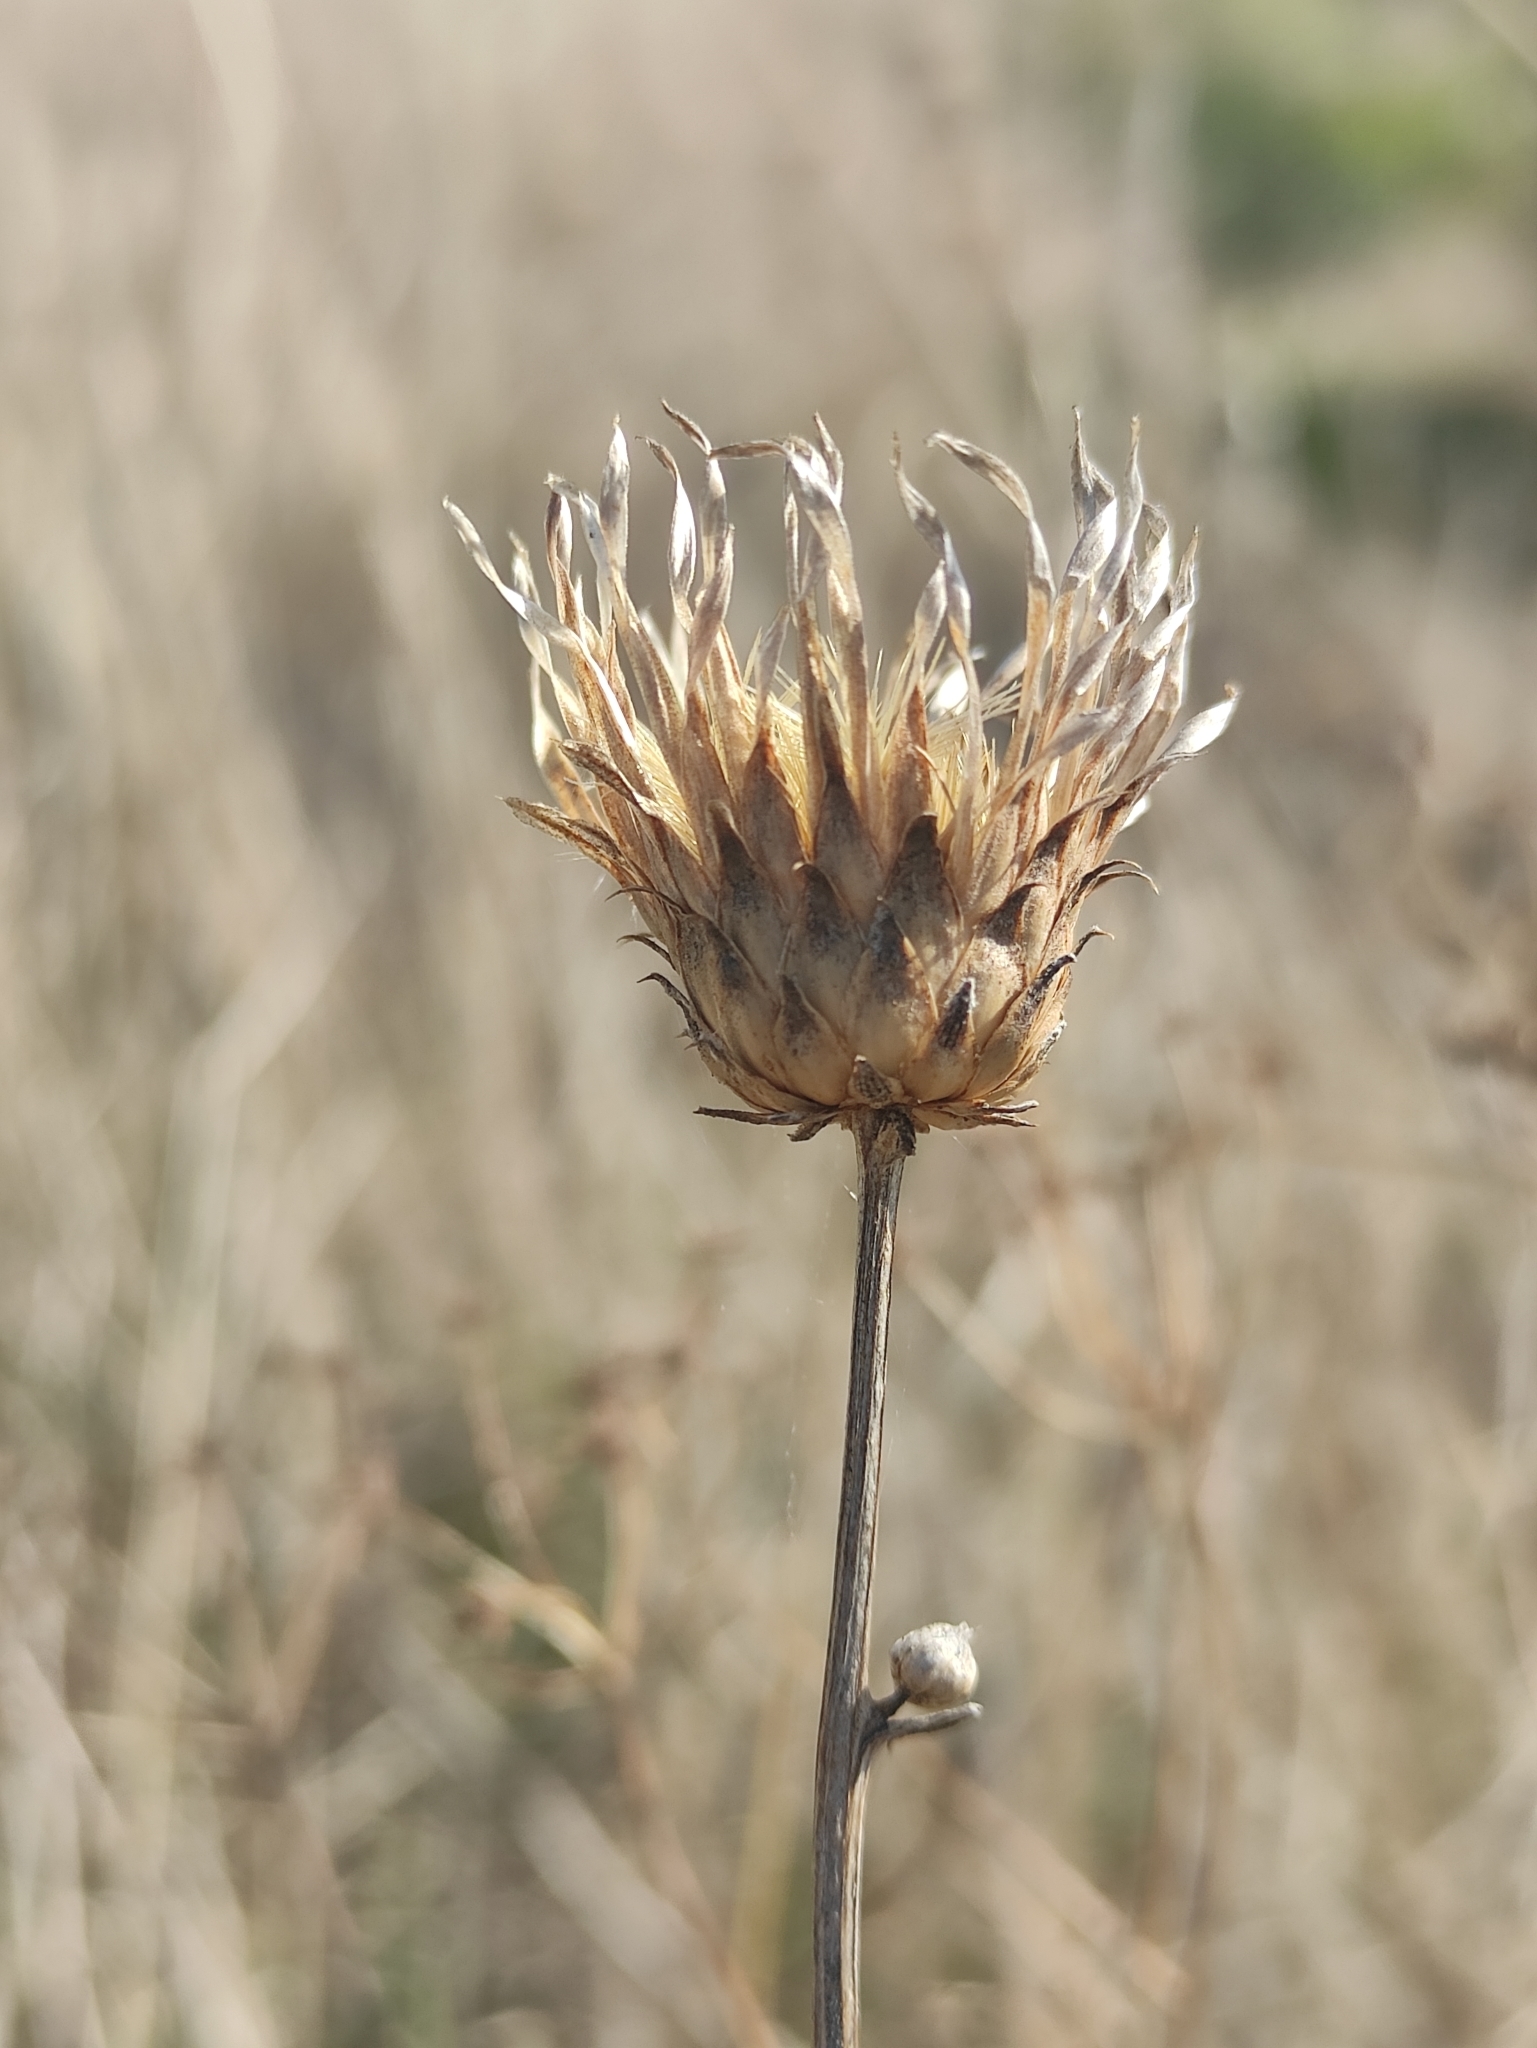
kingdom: Plantae
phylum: Tracheophyta
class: Magnoliopsida
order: Asterales
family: Asteraceae
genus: Klasea
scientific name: Klasea centauroides
